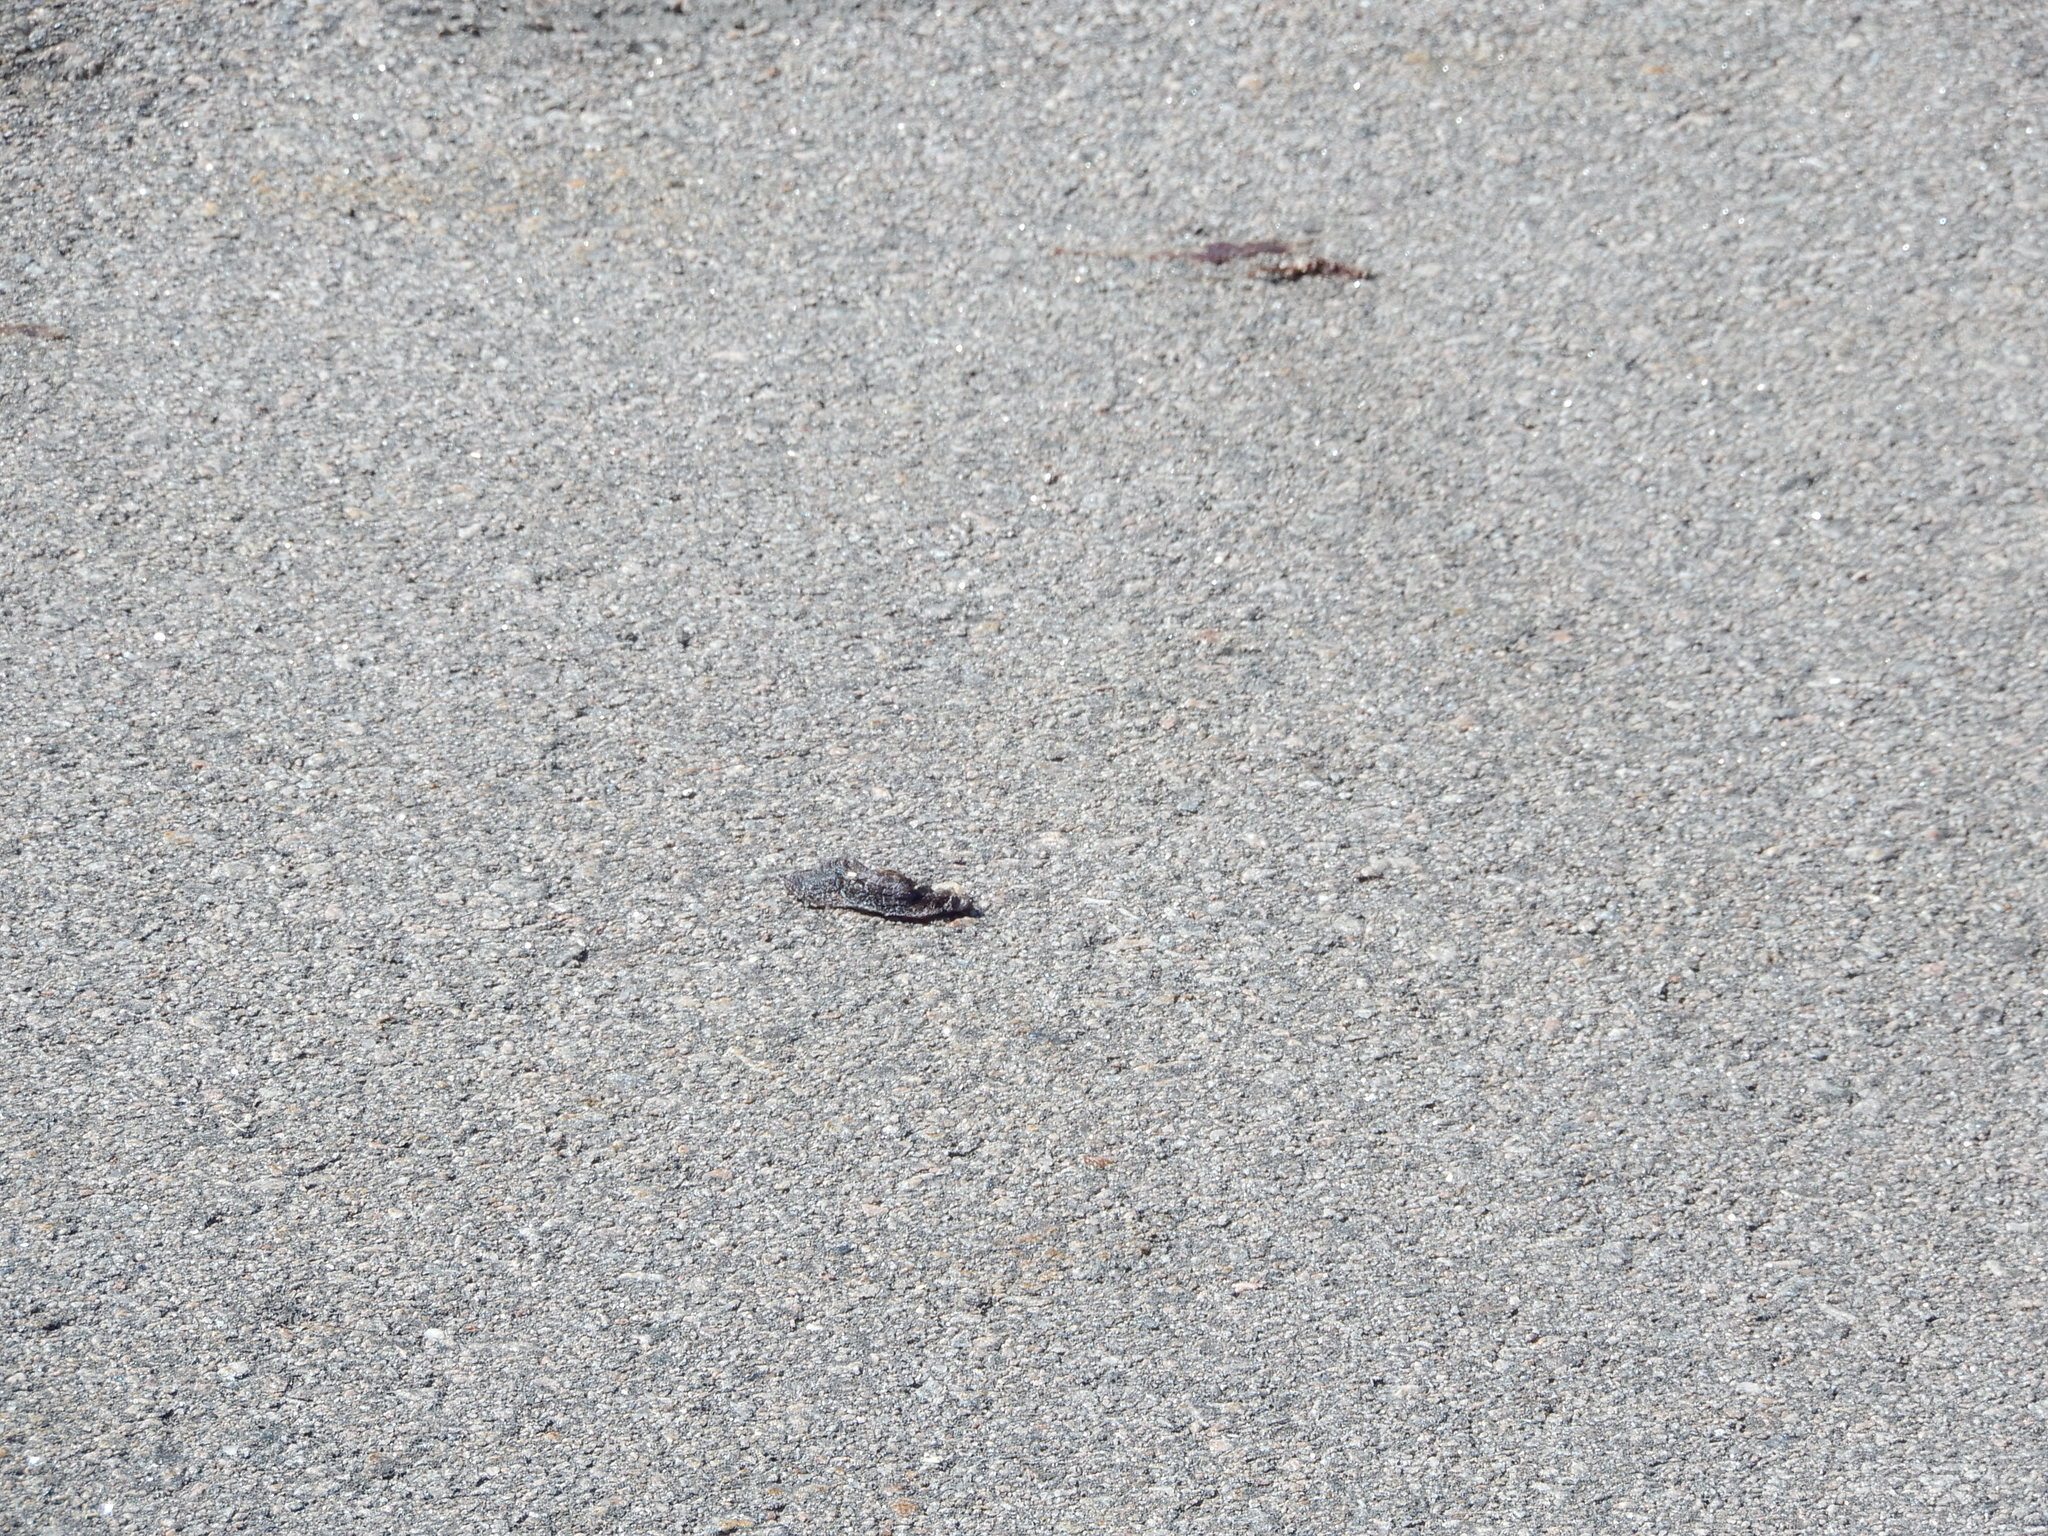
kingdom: Animalia
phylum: Chordata
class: Testudines
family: Chelydridae
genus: Chelydra
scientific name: Chelydra serpentina
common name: Common snapping turtle
